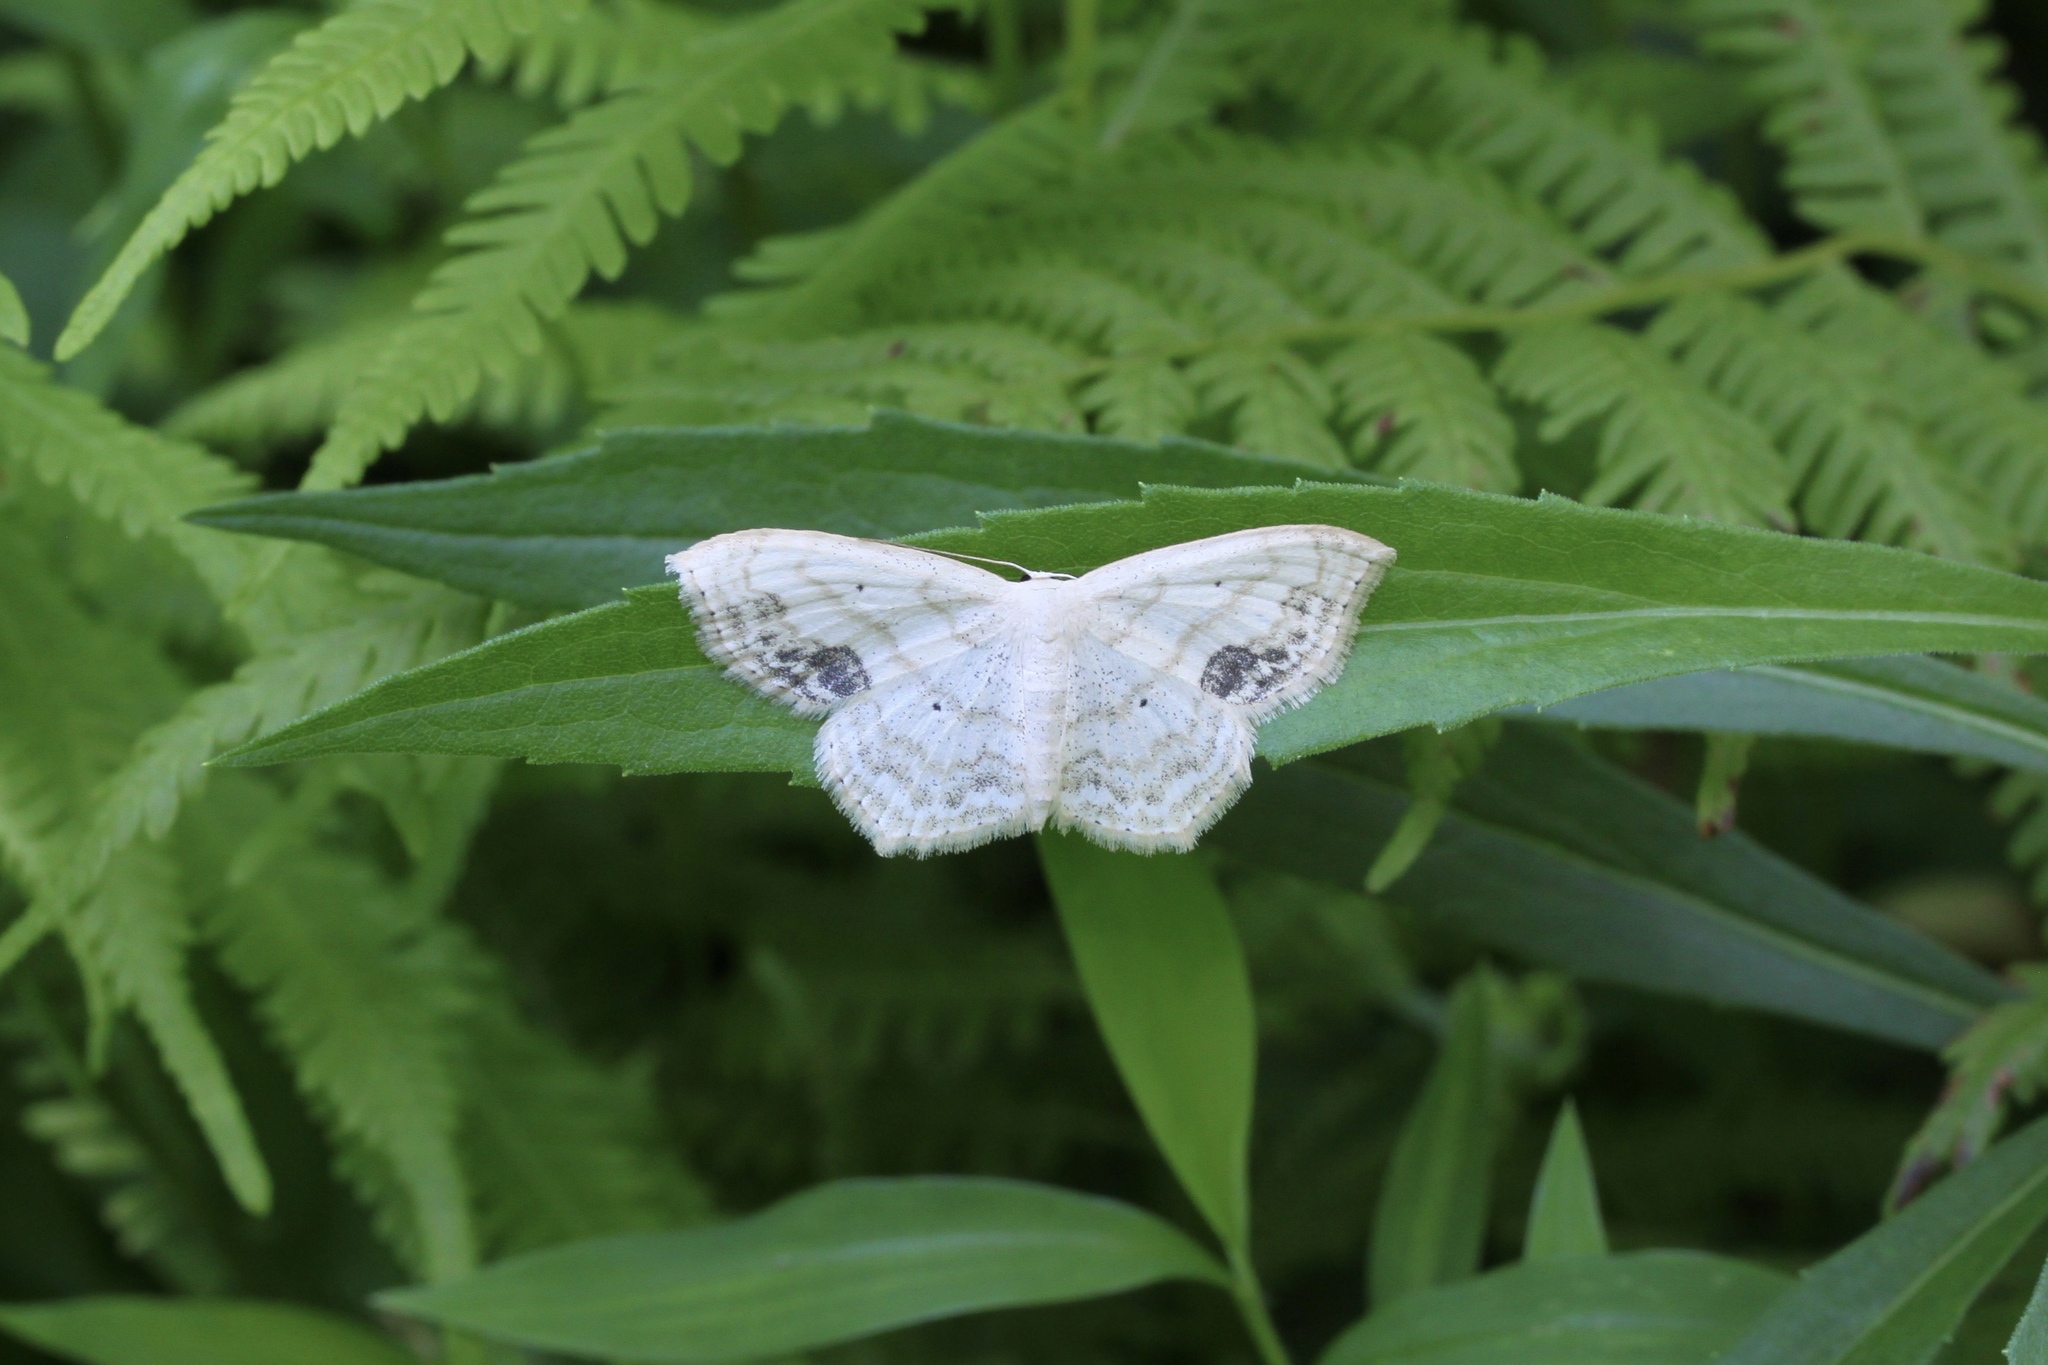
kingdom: Animalia
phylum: Arthropoda
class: Insecta
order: Lepidoptera
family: Geometridae
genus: Scopula
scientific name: Scopula limboundata
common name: Large lace border
